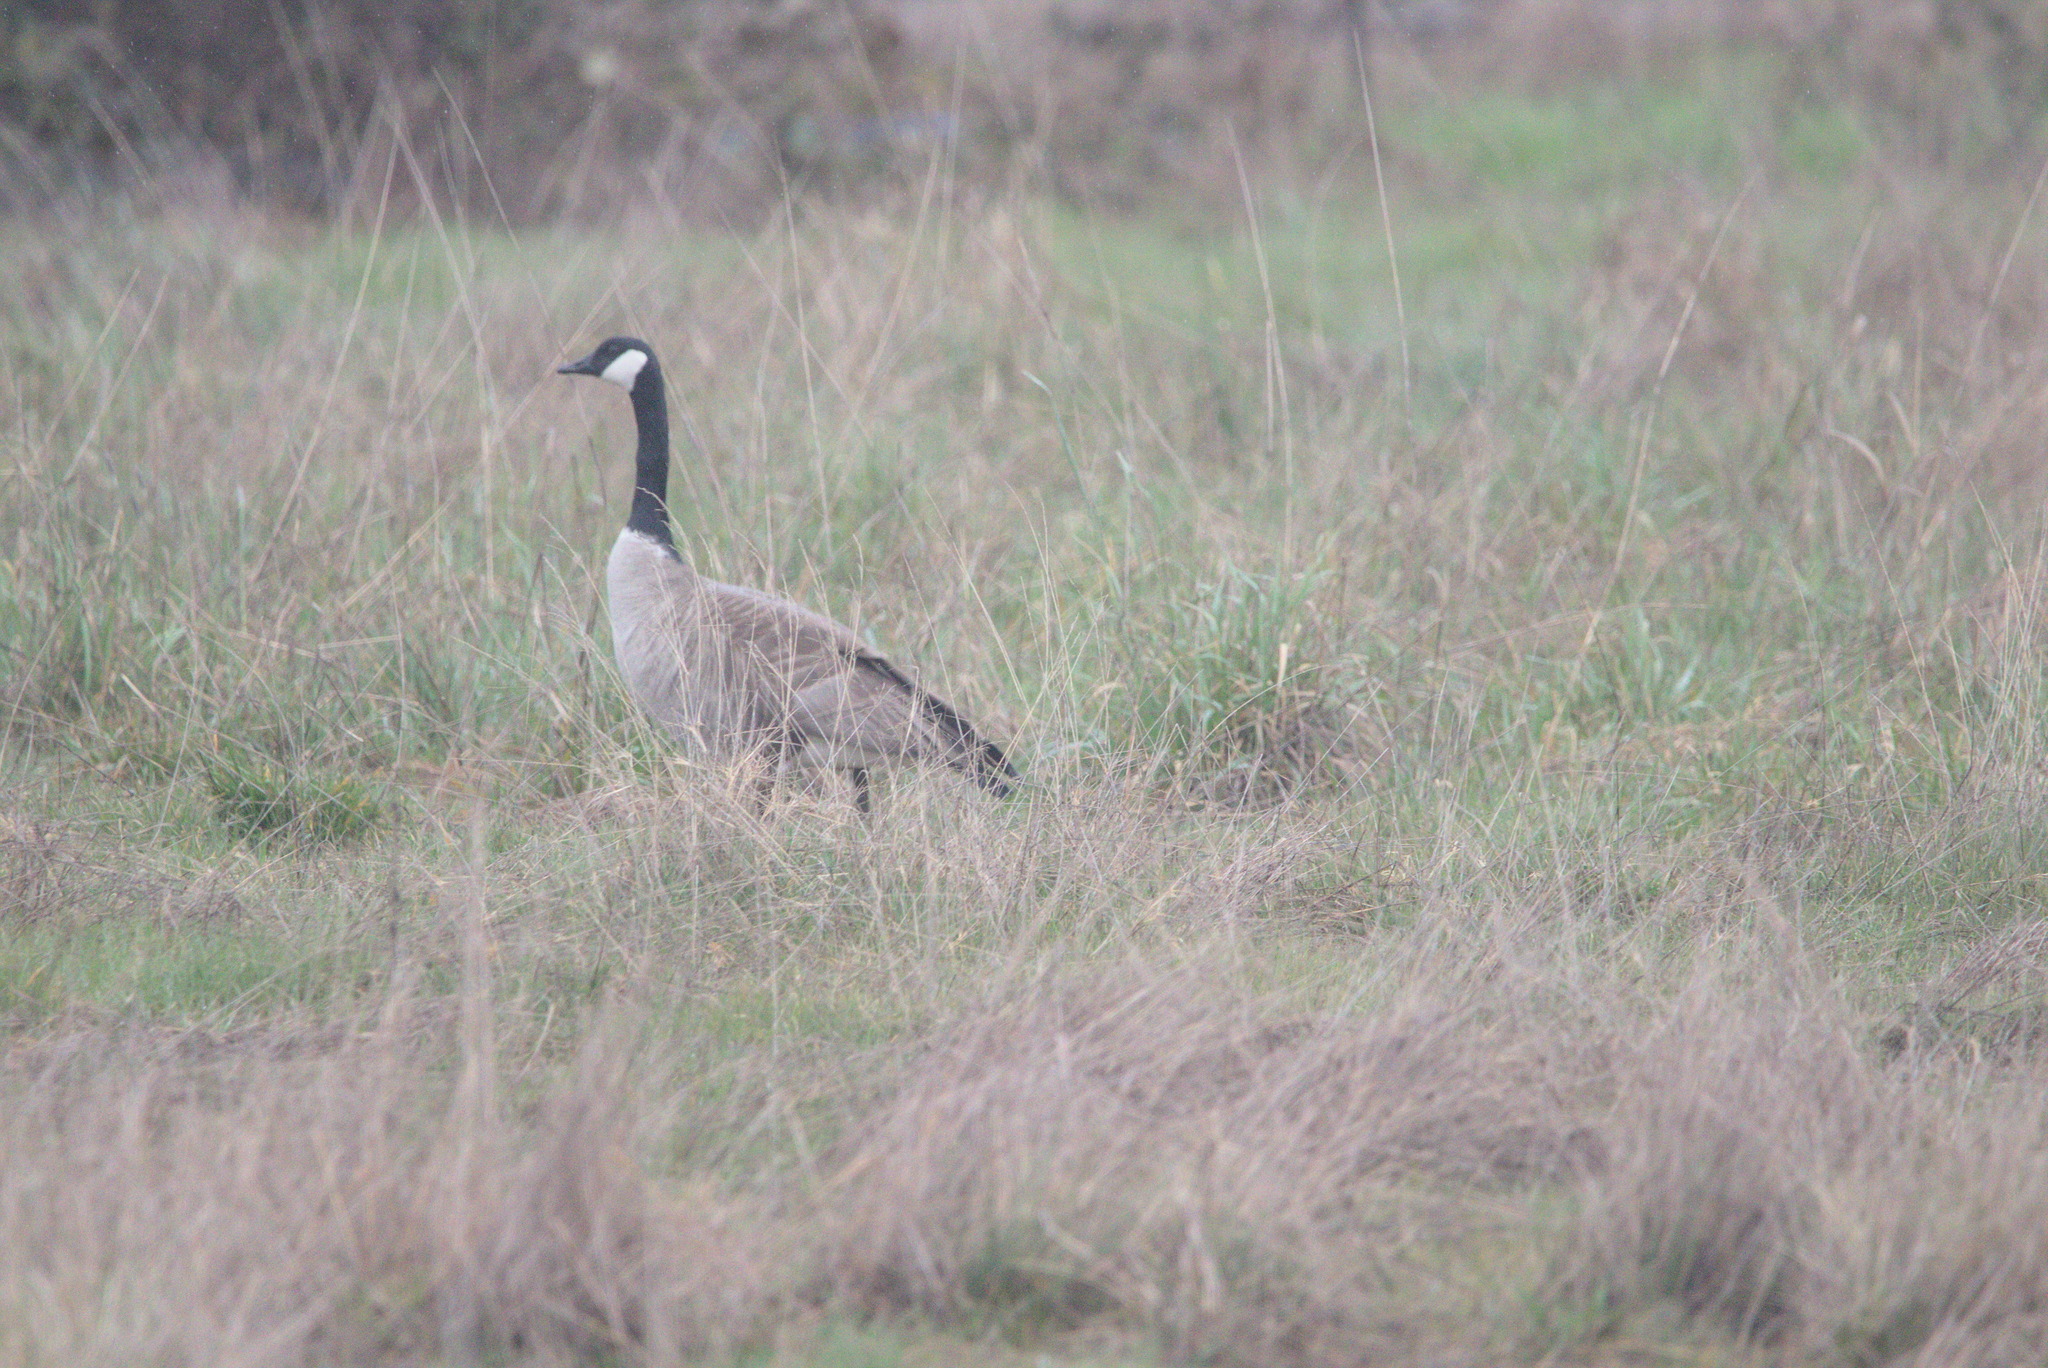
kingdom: Animalia
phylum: Chordata
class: Aves
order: Anseriformes
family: Anatidae
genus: Branta
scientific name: Branta canadensis
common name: Canada goose
